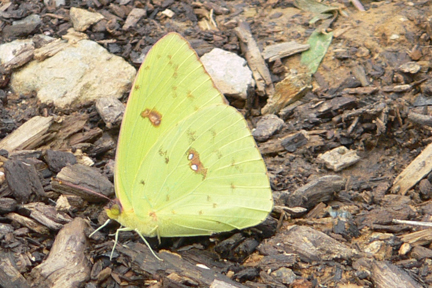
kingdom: Animalia
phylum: Arthropoda
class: Insecta
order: Lepidoptera
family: Pieridae
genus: Phoebis
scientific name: Phoebis sennae
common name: Cloudless sulphur
